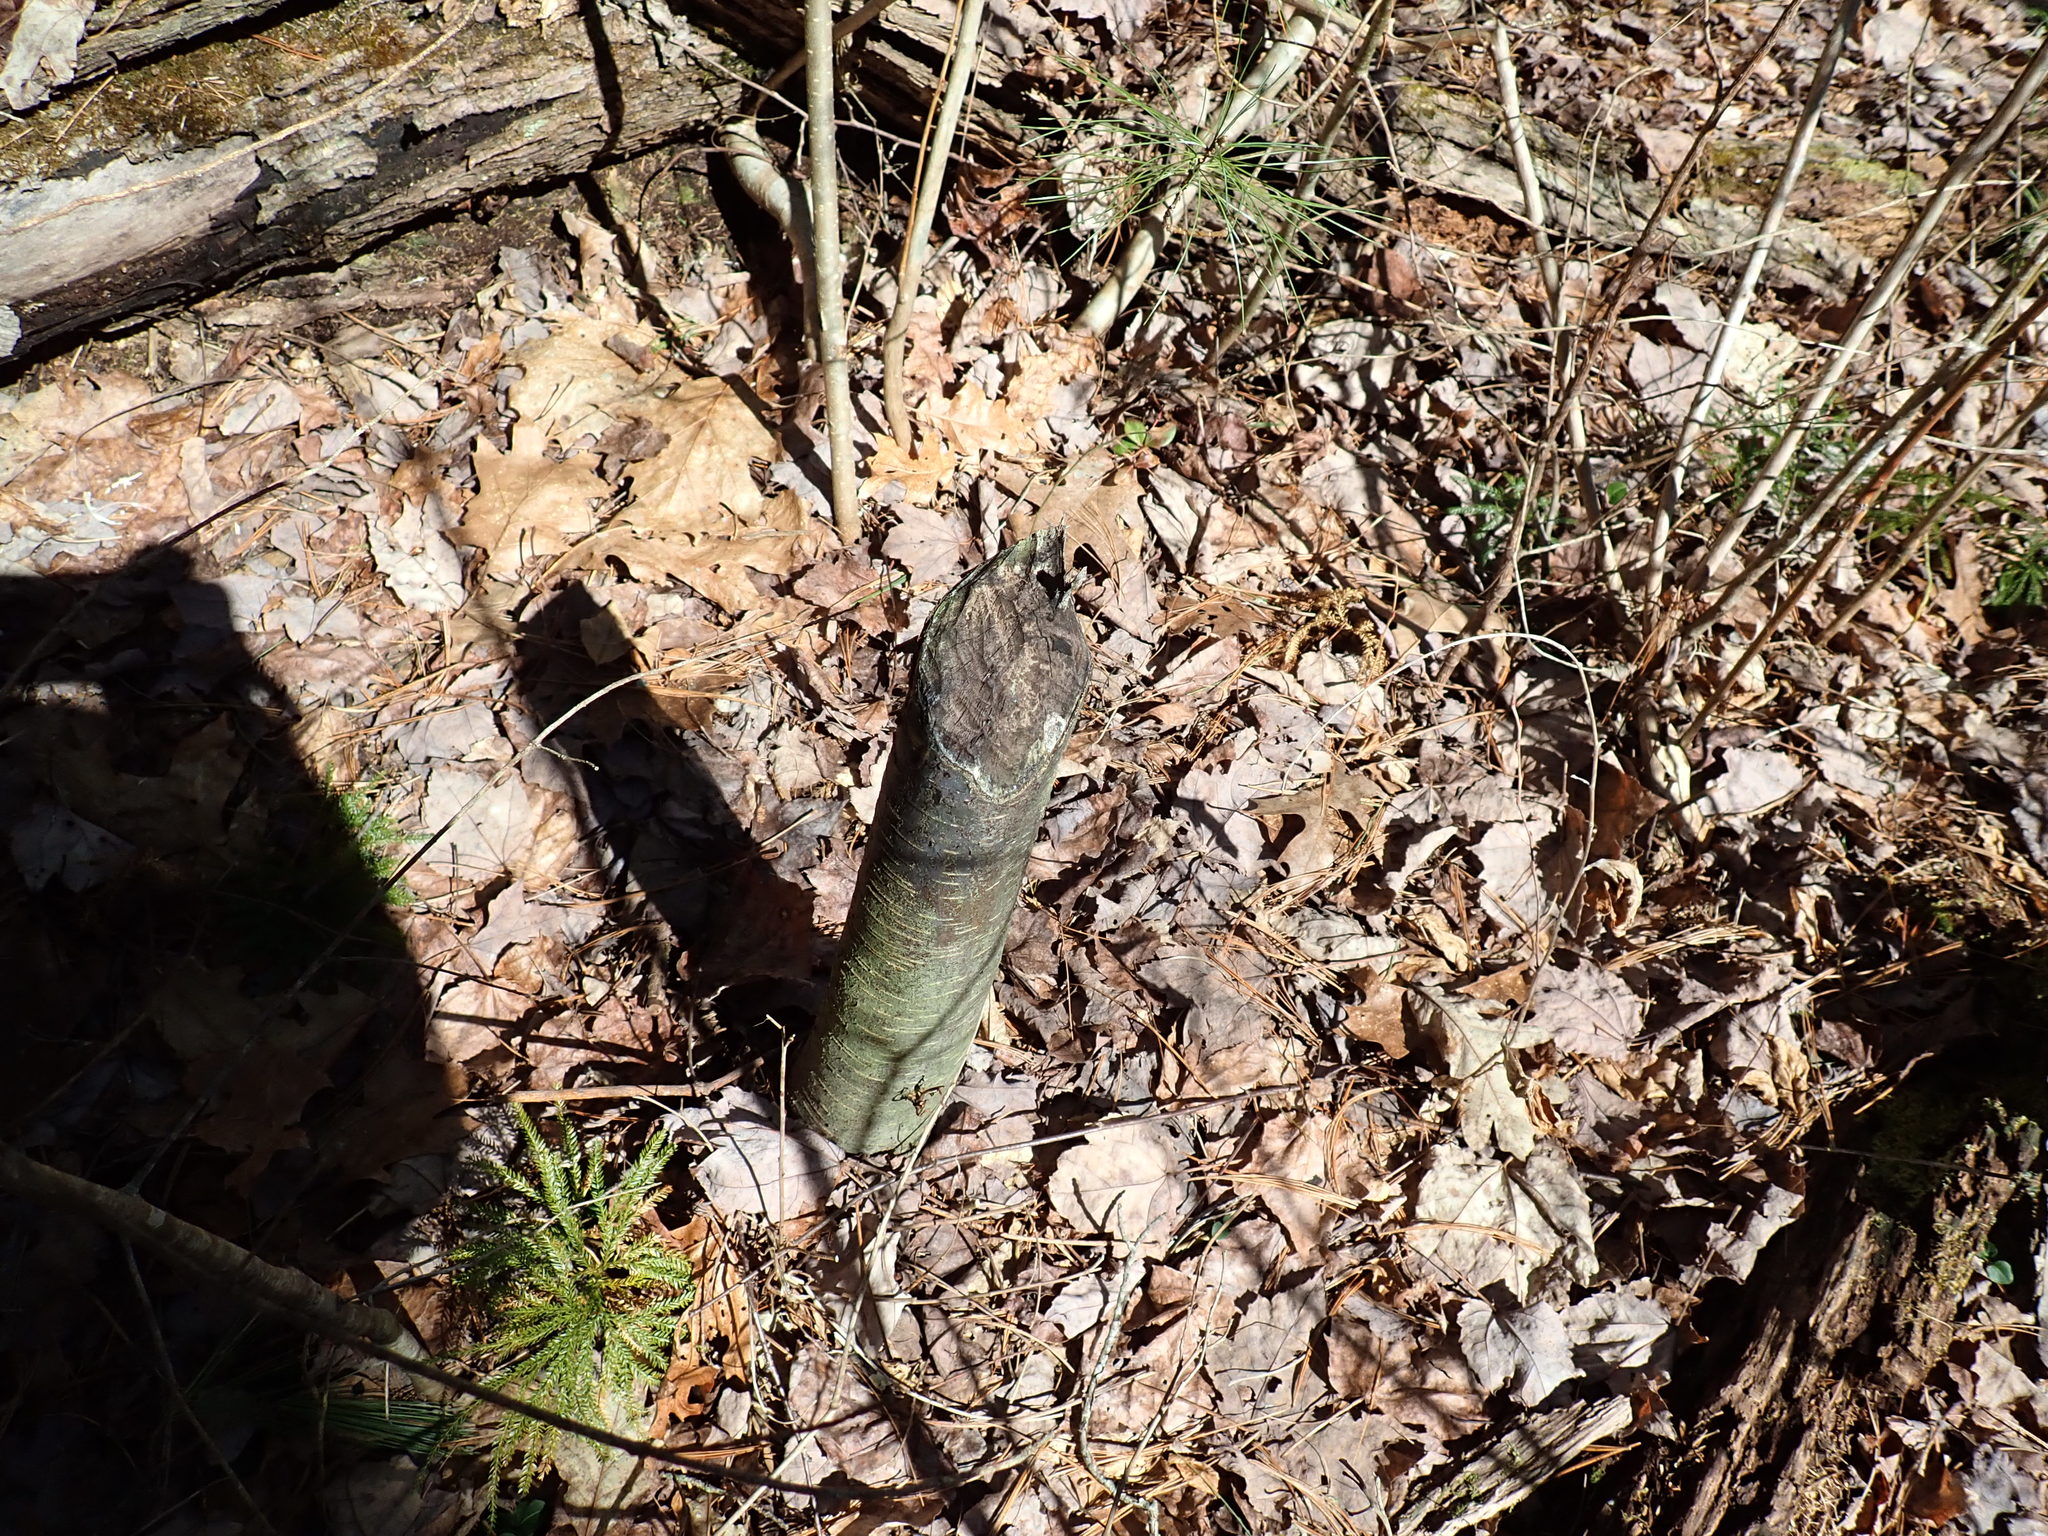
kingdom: Animalia
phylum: Chordata
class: Mammalia
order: Rodentia
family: Castoridae
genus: Castor
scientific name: Castor canadensis
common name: American beaver
